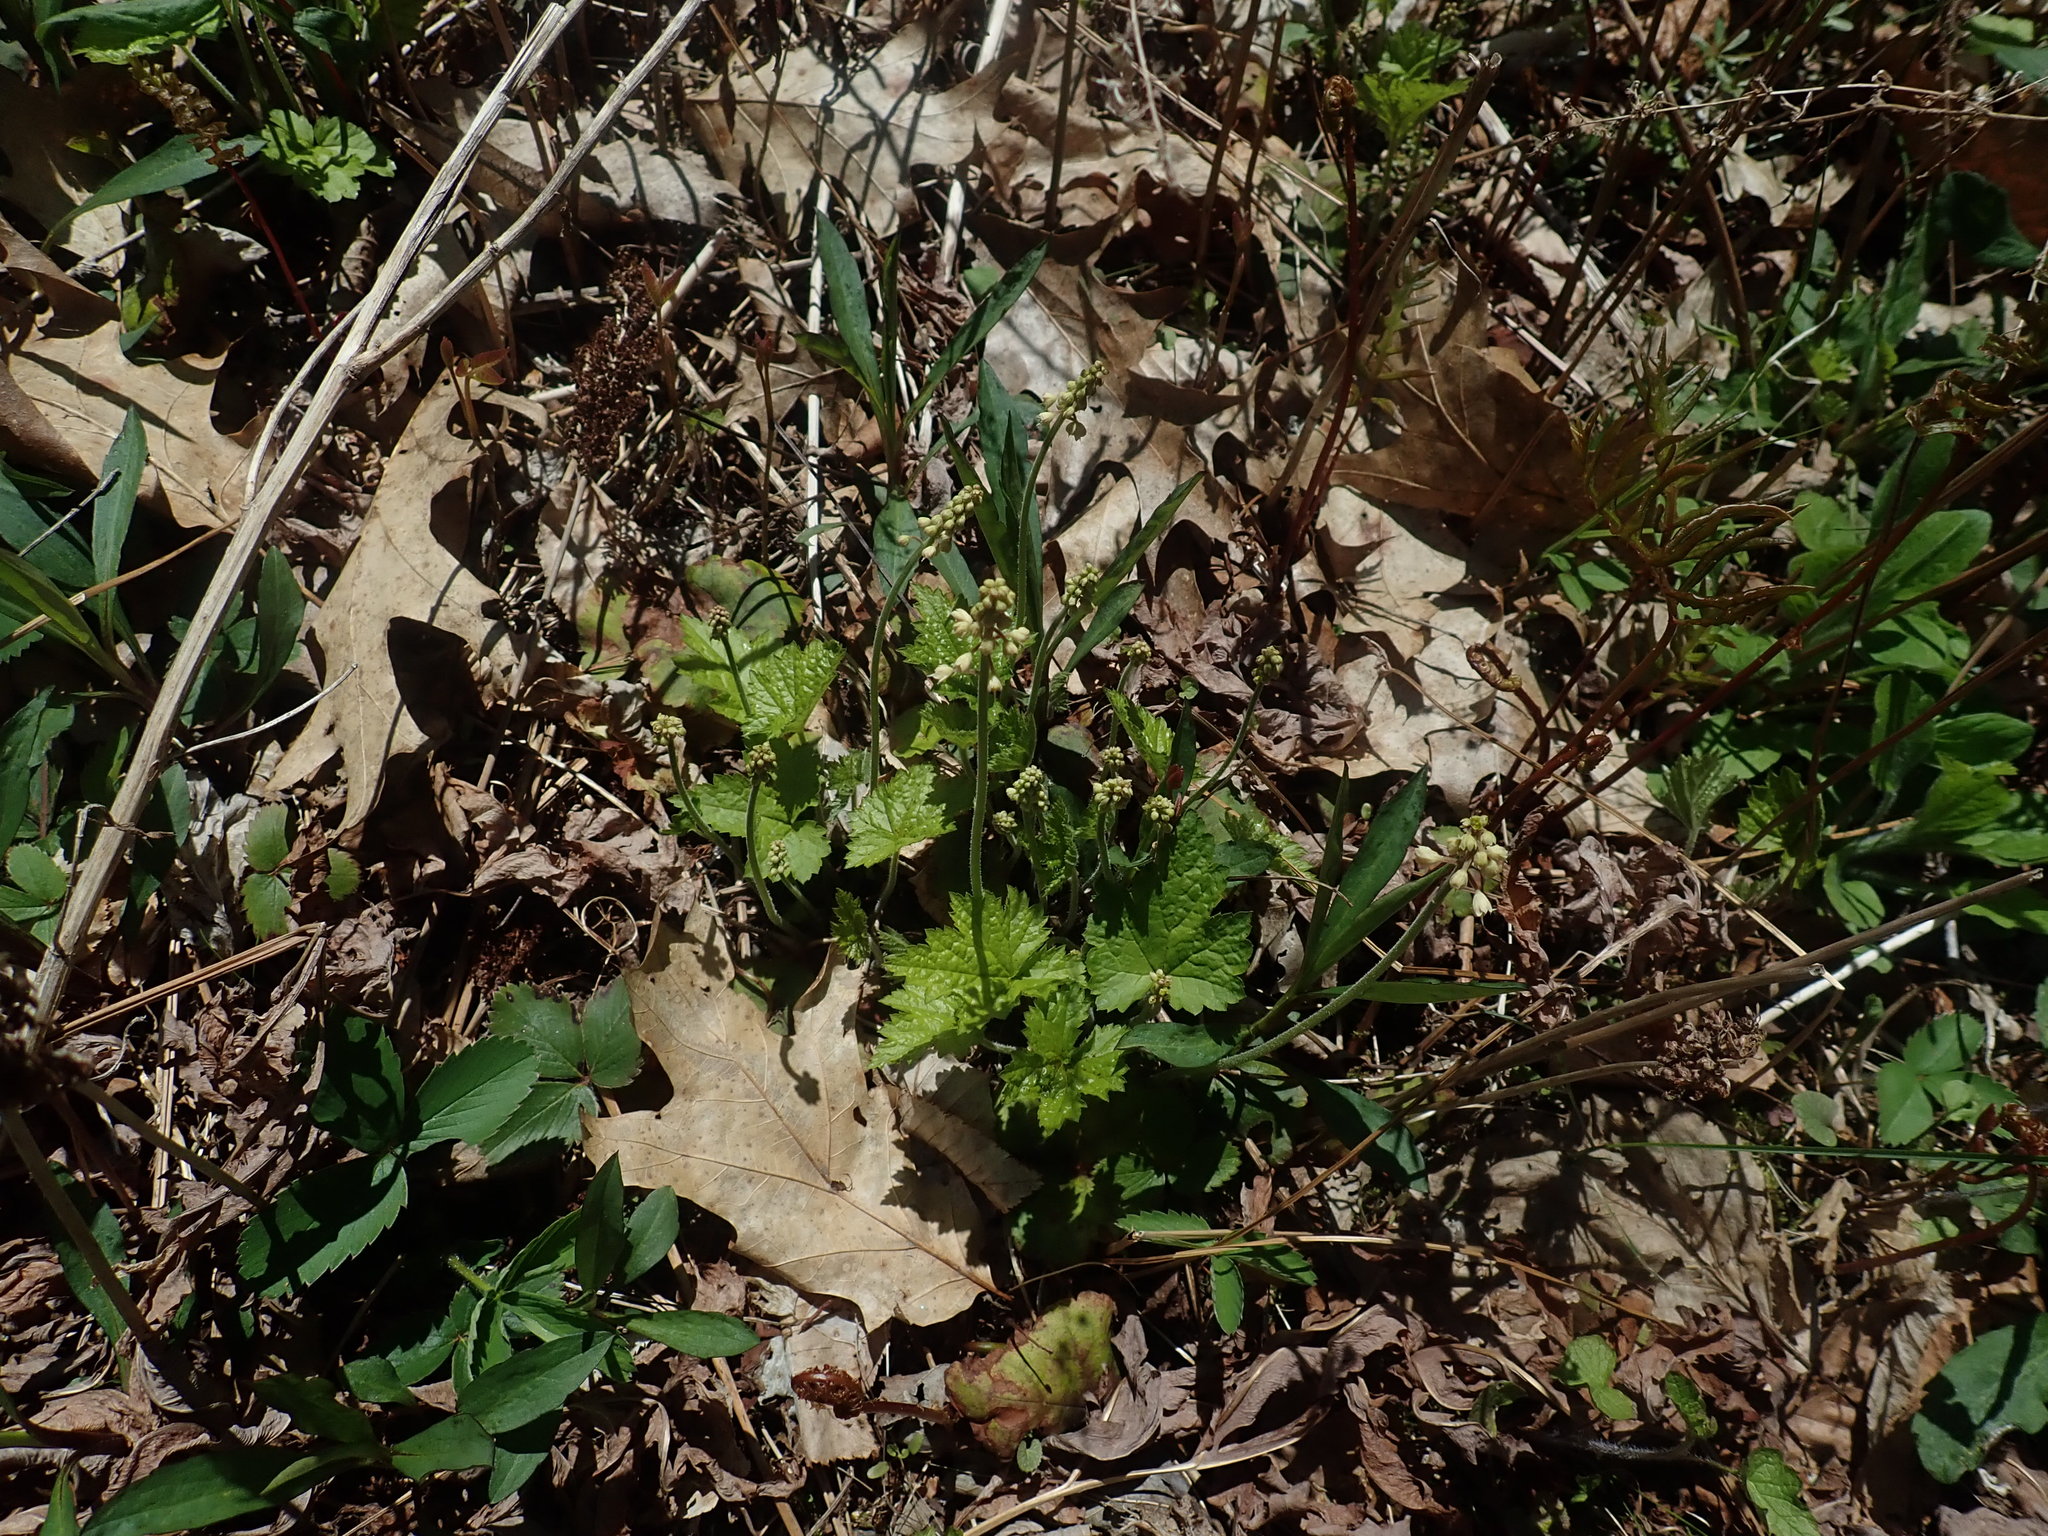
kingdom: Plantae
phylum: Tracheophyta
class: Magnoliopsida
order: Saxifragales
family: Saxifragaceae
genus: Tiarella
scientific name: Tiarella stolonifera
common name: Stoloniferous foamflower
